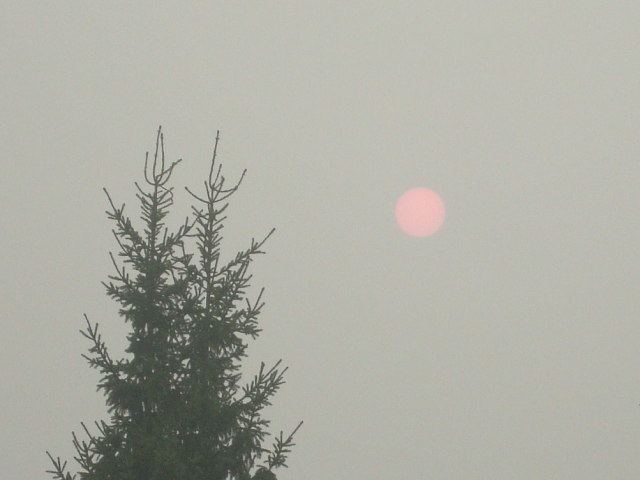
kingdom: Plantae
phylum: Tracheophyta
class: Pinopsida
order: Pinales
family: Pinaceae
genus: Picea
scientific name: Picea abies
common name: Norway spruce
